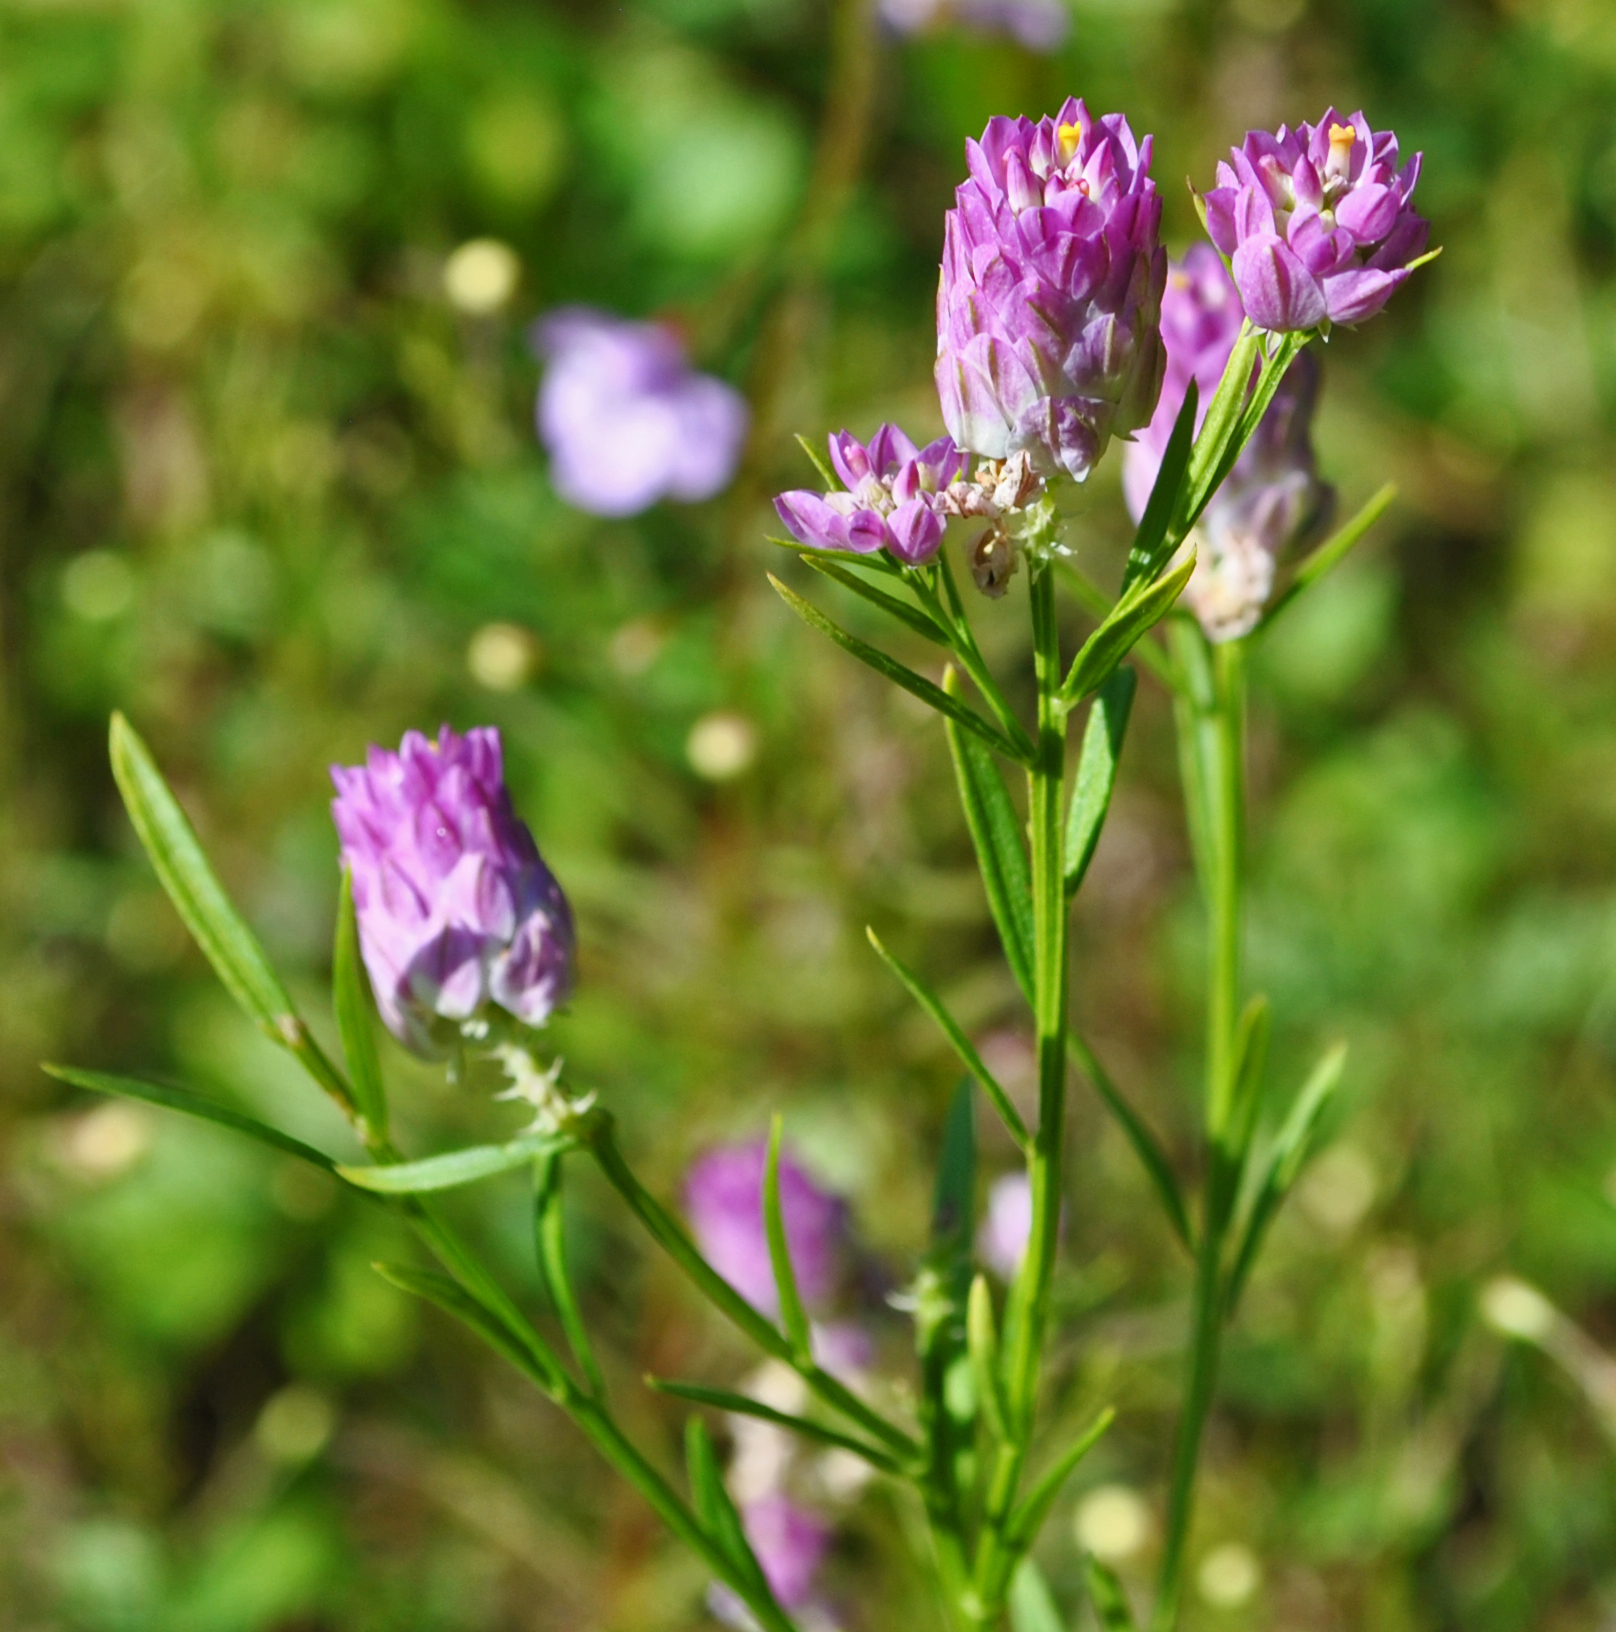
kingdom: Plantae
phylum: Tracheophyta
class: Magnoliopsida
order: Fabales
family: Polygalaceae
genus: Polygala
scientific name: Polygala sanguinea
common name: Blood milkwort
